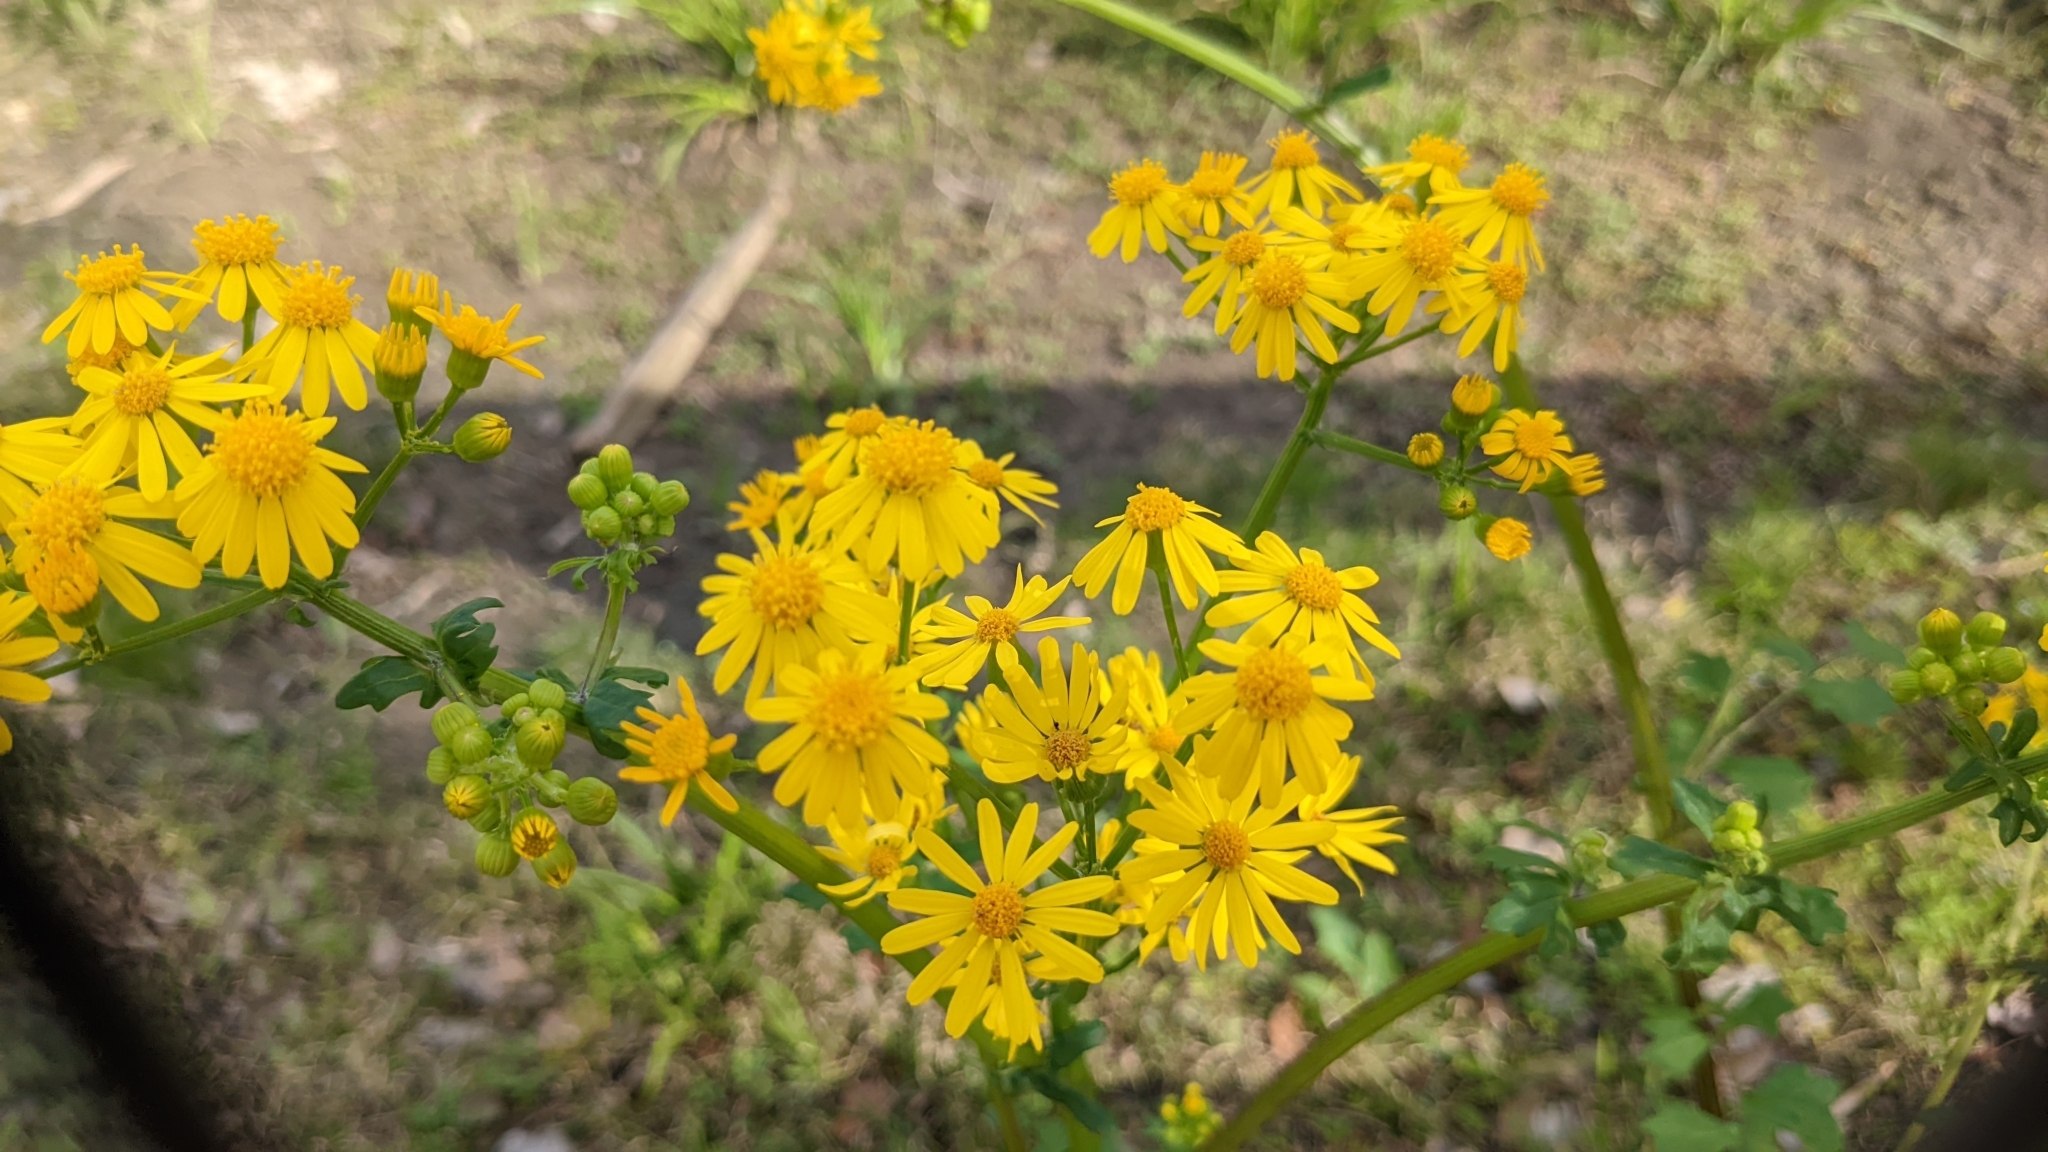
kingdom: Plantae
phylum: Tracheophyta
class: Magnoliopsida
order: Asterales
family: Asteraceae
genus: Packera
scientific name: Packera glabella
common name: Butterweed
